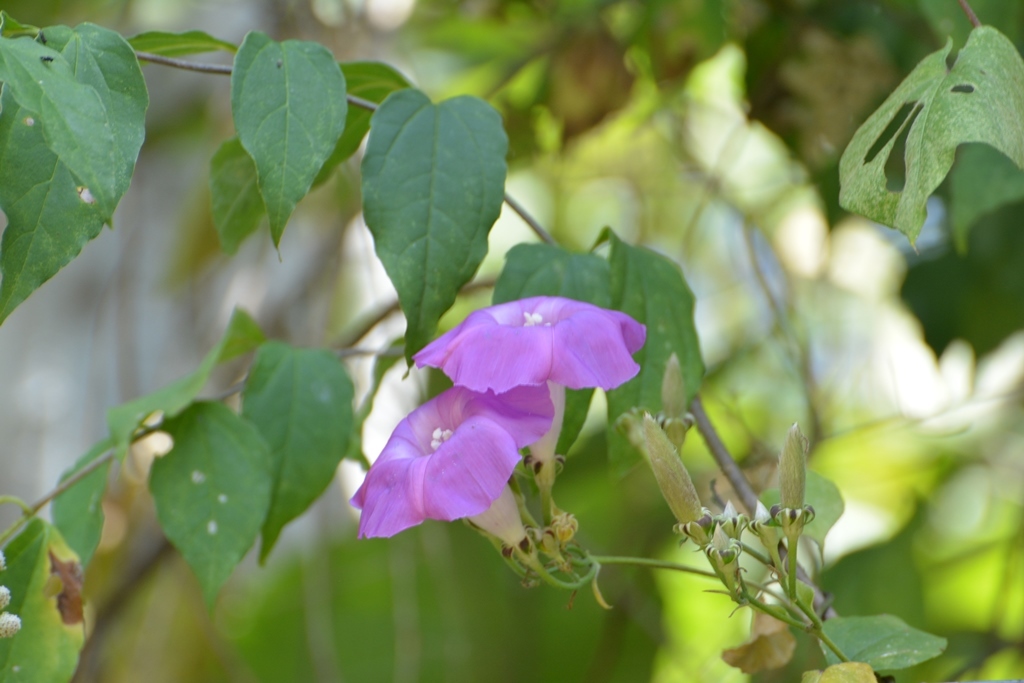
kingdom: Plantae
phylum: Tracheophyta
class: Magnoliopsida
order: Solanales
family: Convolvulaceae
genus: Ipomoea
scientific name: Ipomoea leucotricha
